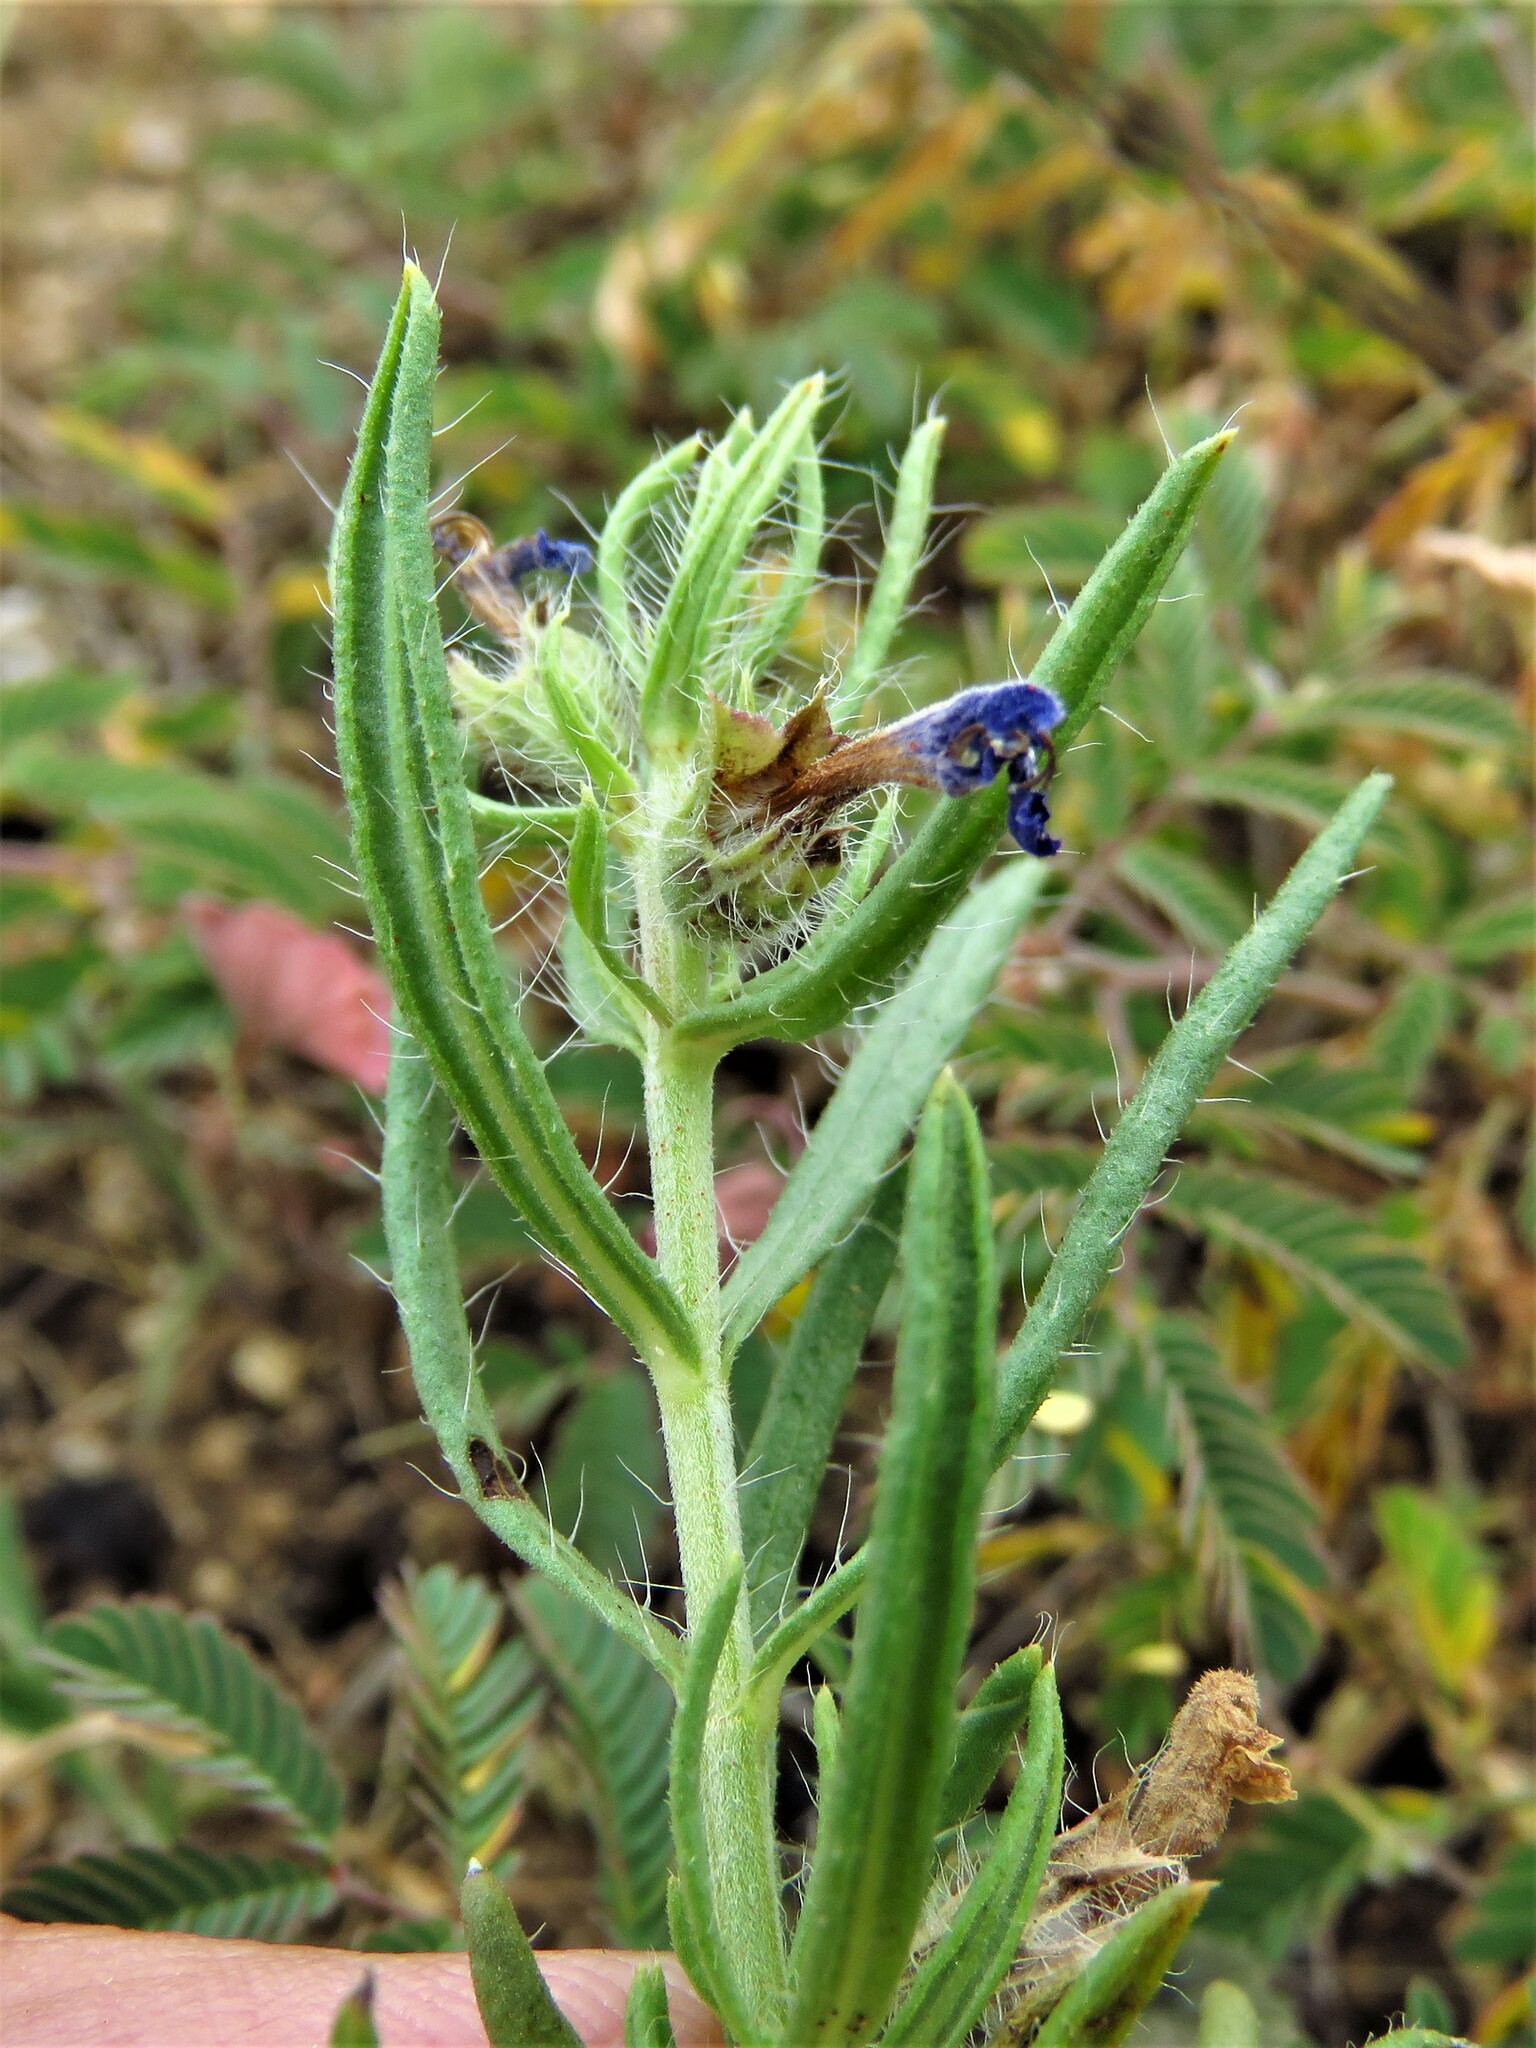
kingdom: Plantae
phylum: Tracheophyta
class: Magnoliopsida
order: Lamiales
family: Lamiaceae
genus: Salvia
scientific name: Salvia texana
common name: Texas sage
